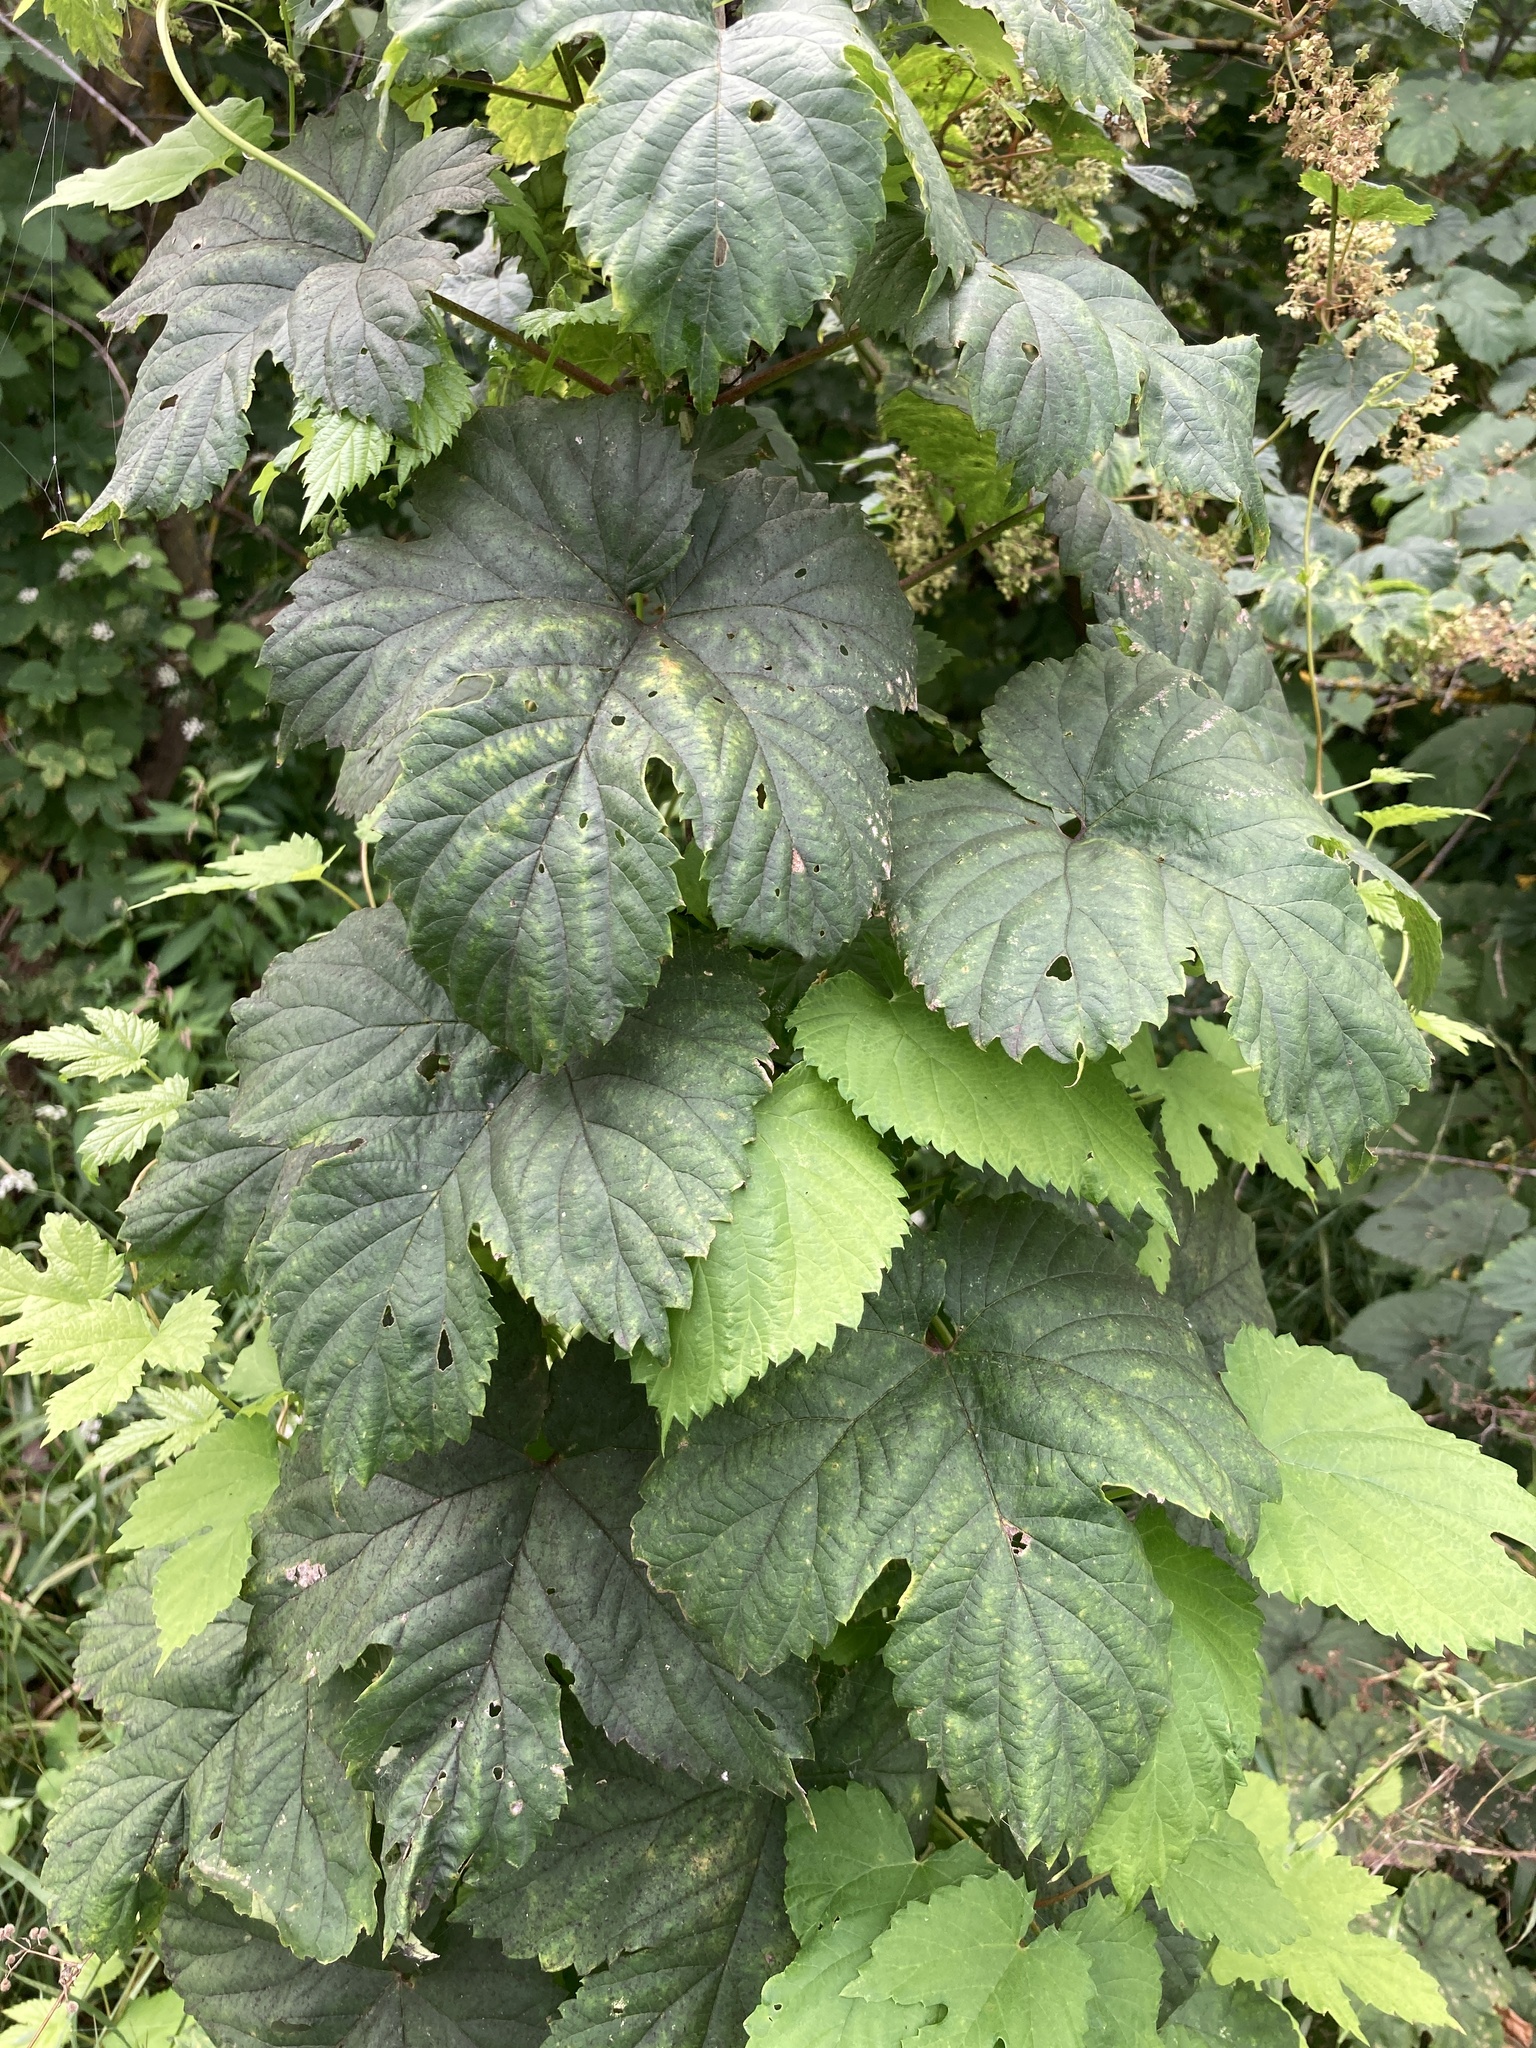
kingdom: Plantae
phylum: Tracheophyta
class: Magnoliopsida
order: Rosales
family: Cannabaceae
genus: Humulus
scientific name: Humulus lupulus
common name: Hop
